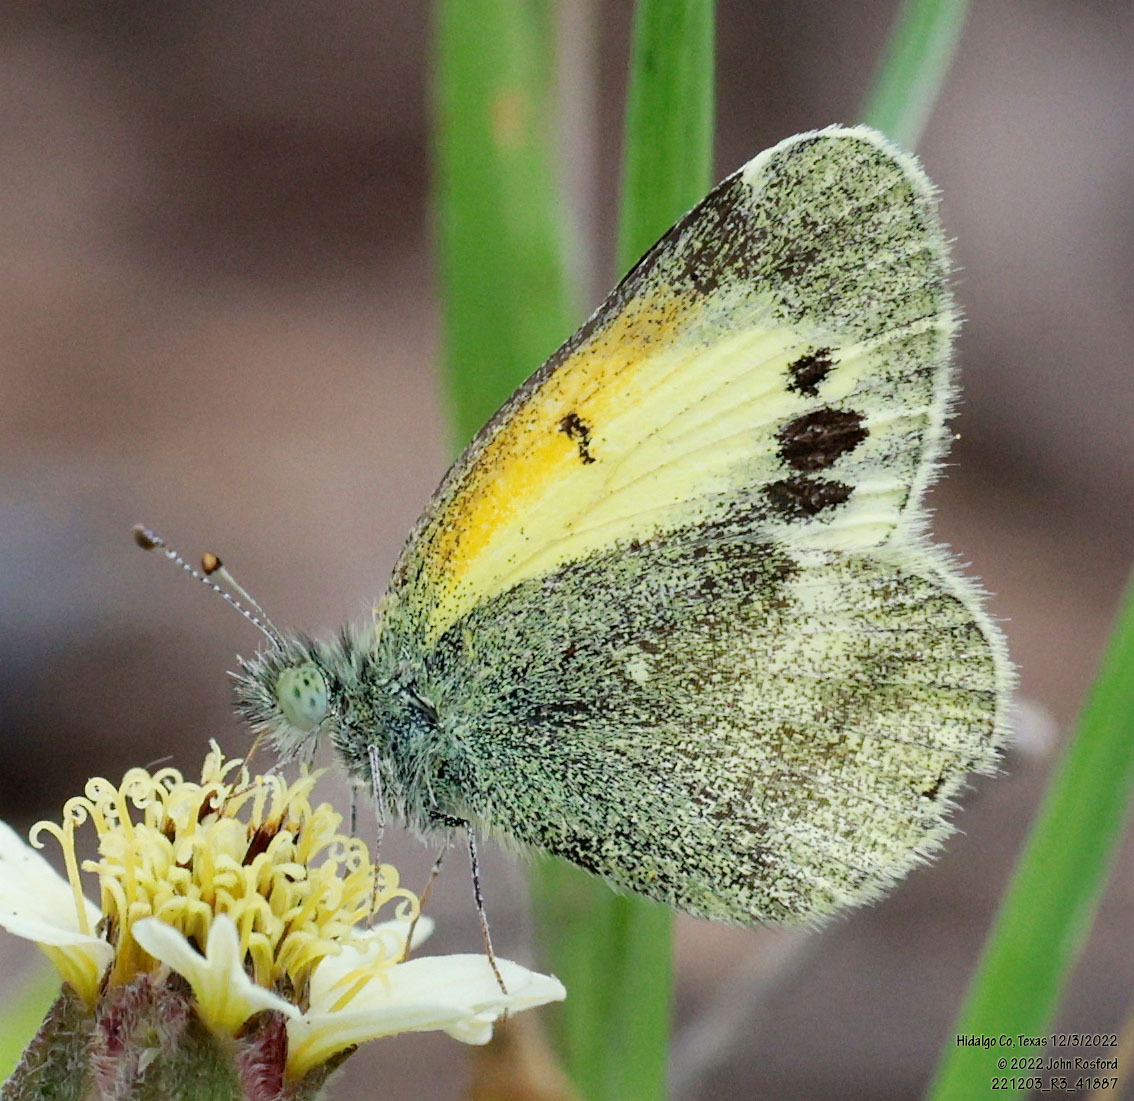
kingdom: Animalia
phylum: Arthropoda
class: Insecta
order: Lepidoptera
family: Pieridae
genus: Nathalis
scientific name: Nathalis iole
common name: Dainty sulphur
